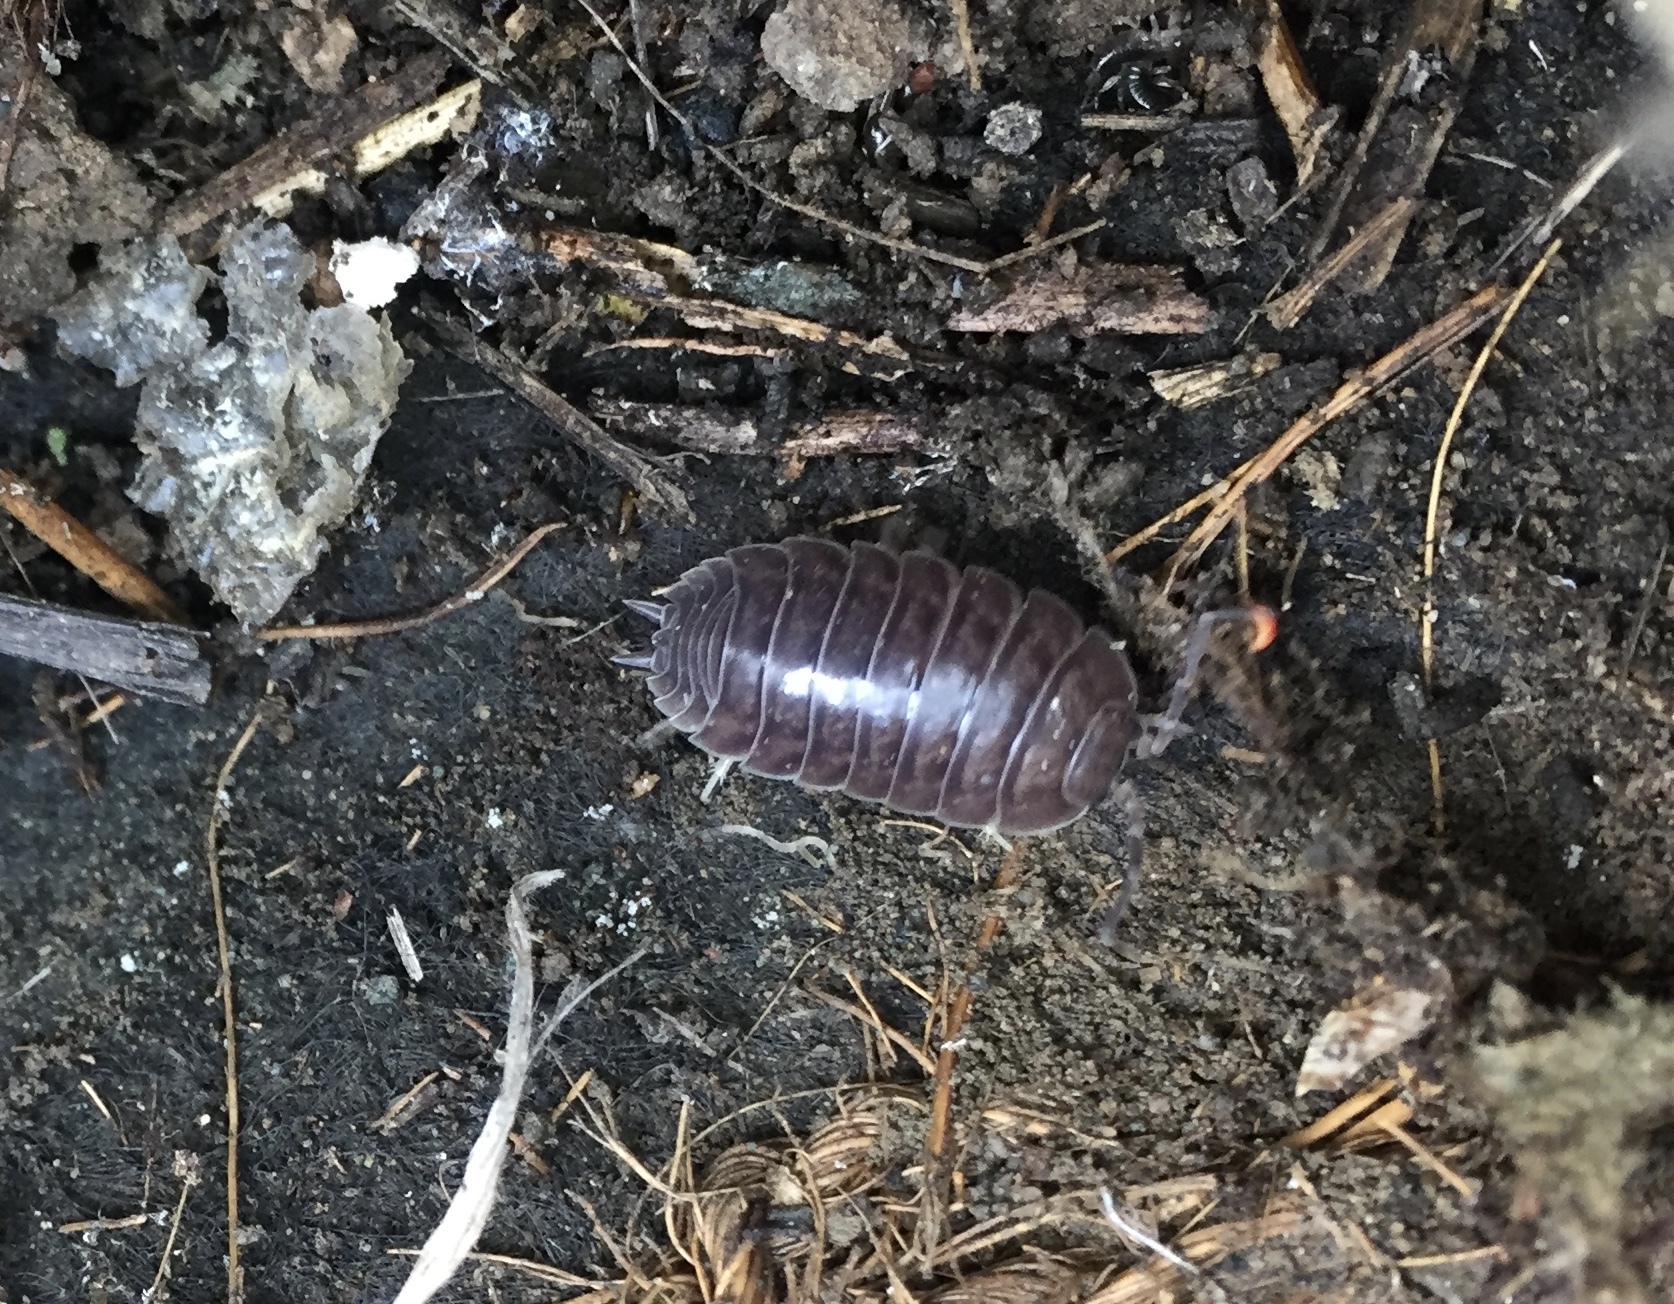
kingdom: Animalia
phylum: Arthropoda
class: Malacostraca
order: Isopoda
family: Porcellionidae
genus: Porcellio
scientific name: Porcellio laevis
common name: Swift woodlouse
